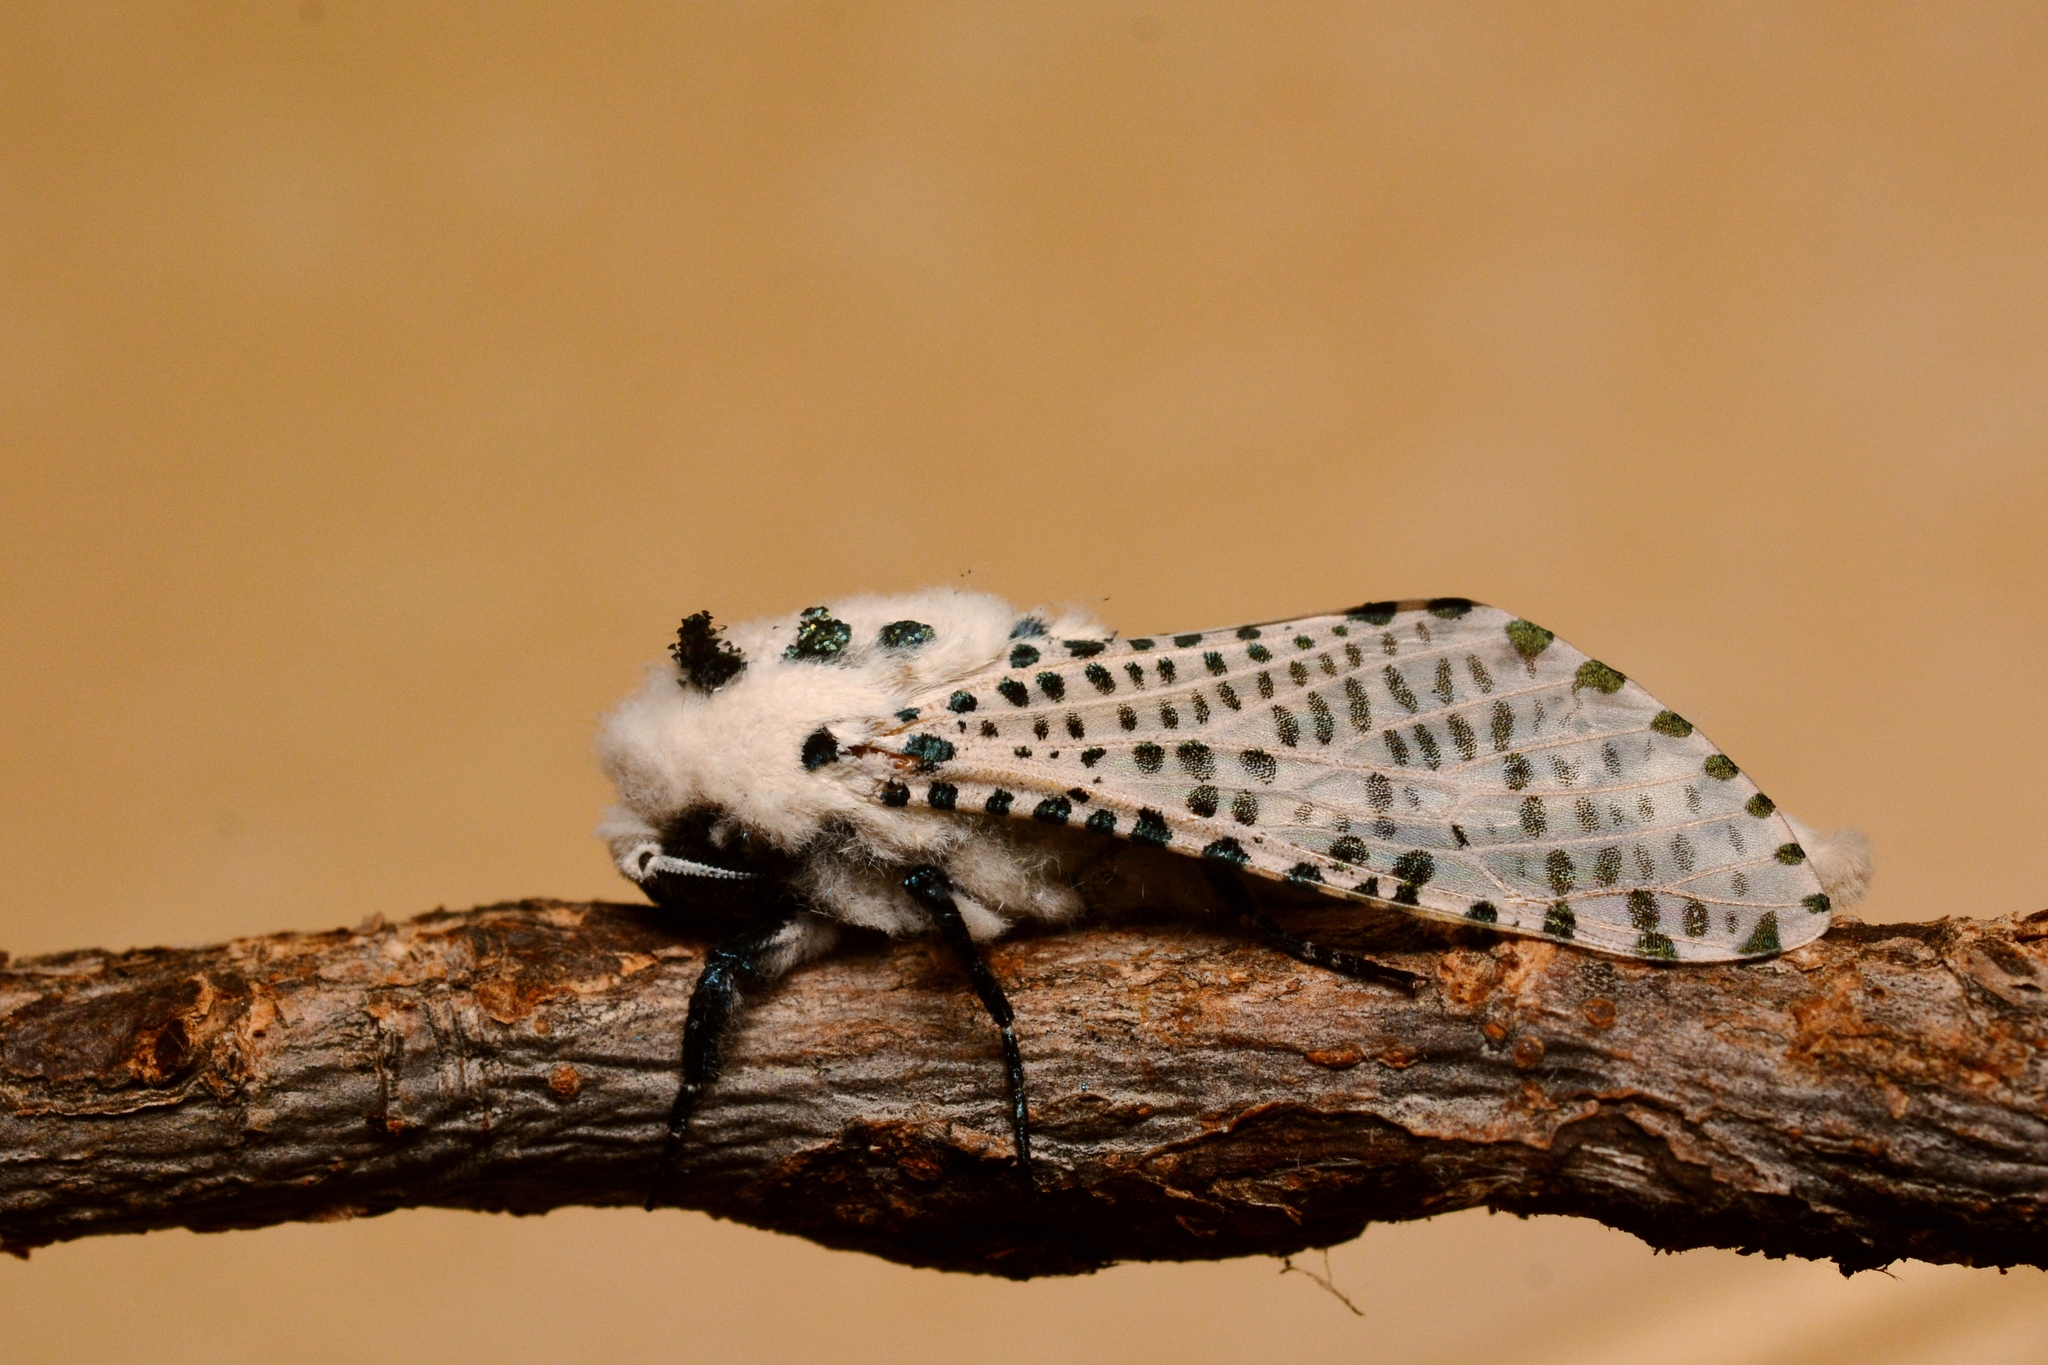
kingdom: Animalia
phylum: Arthropoda
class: Insecta
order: Lepidoptera
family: Cossidae
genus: Zeuzera
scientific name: Zeuzera pyrina
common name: Leopard moth
